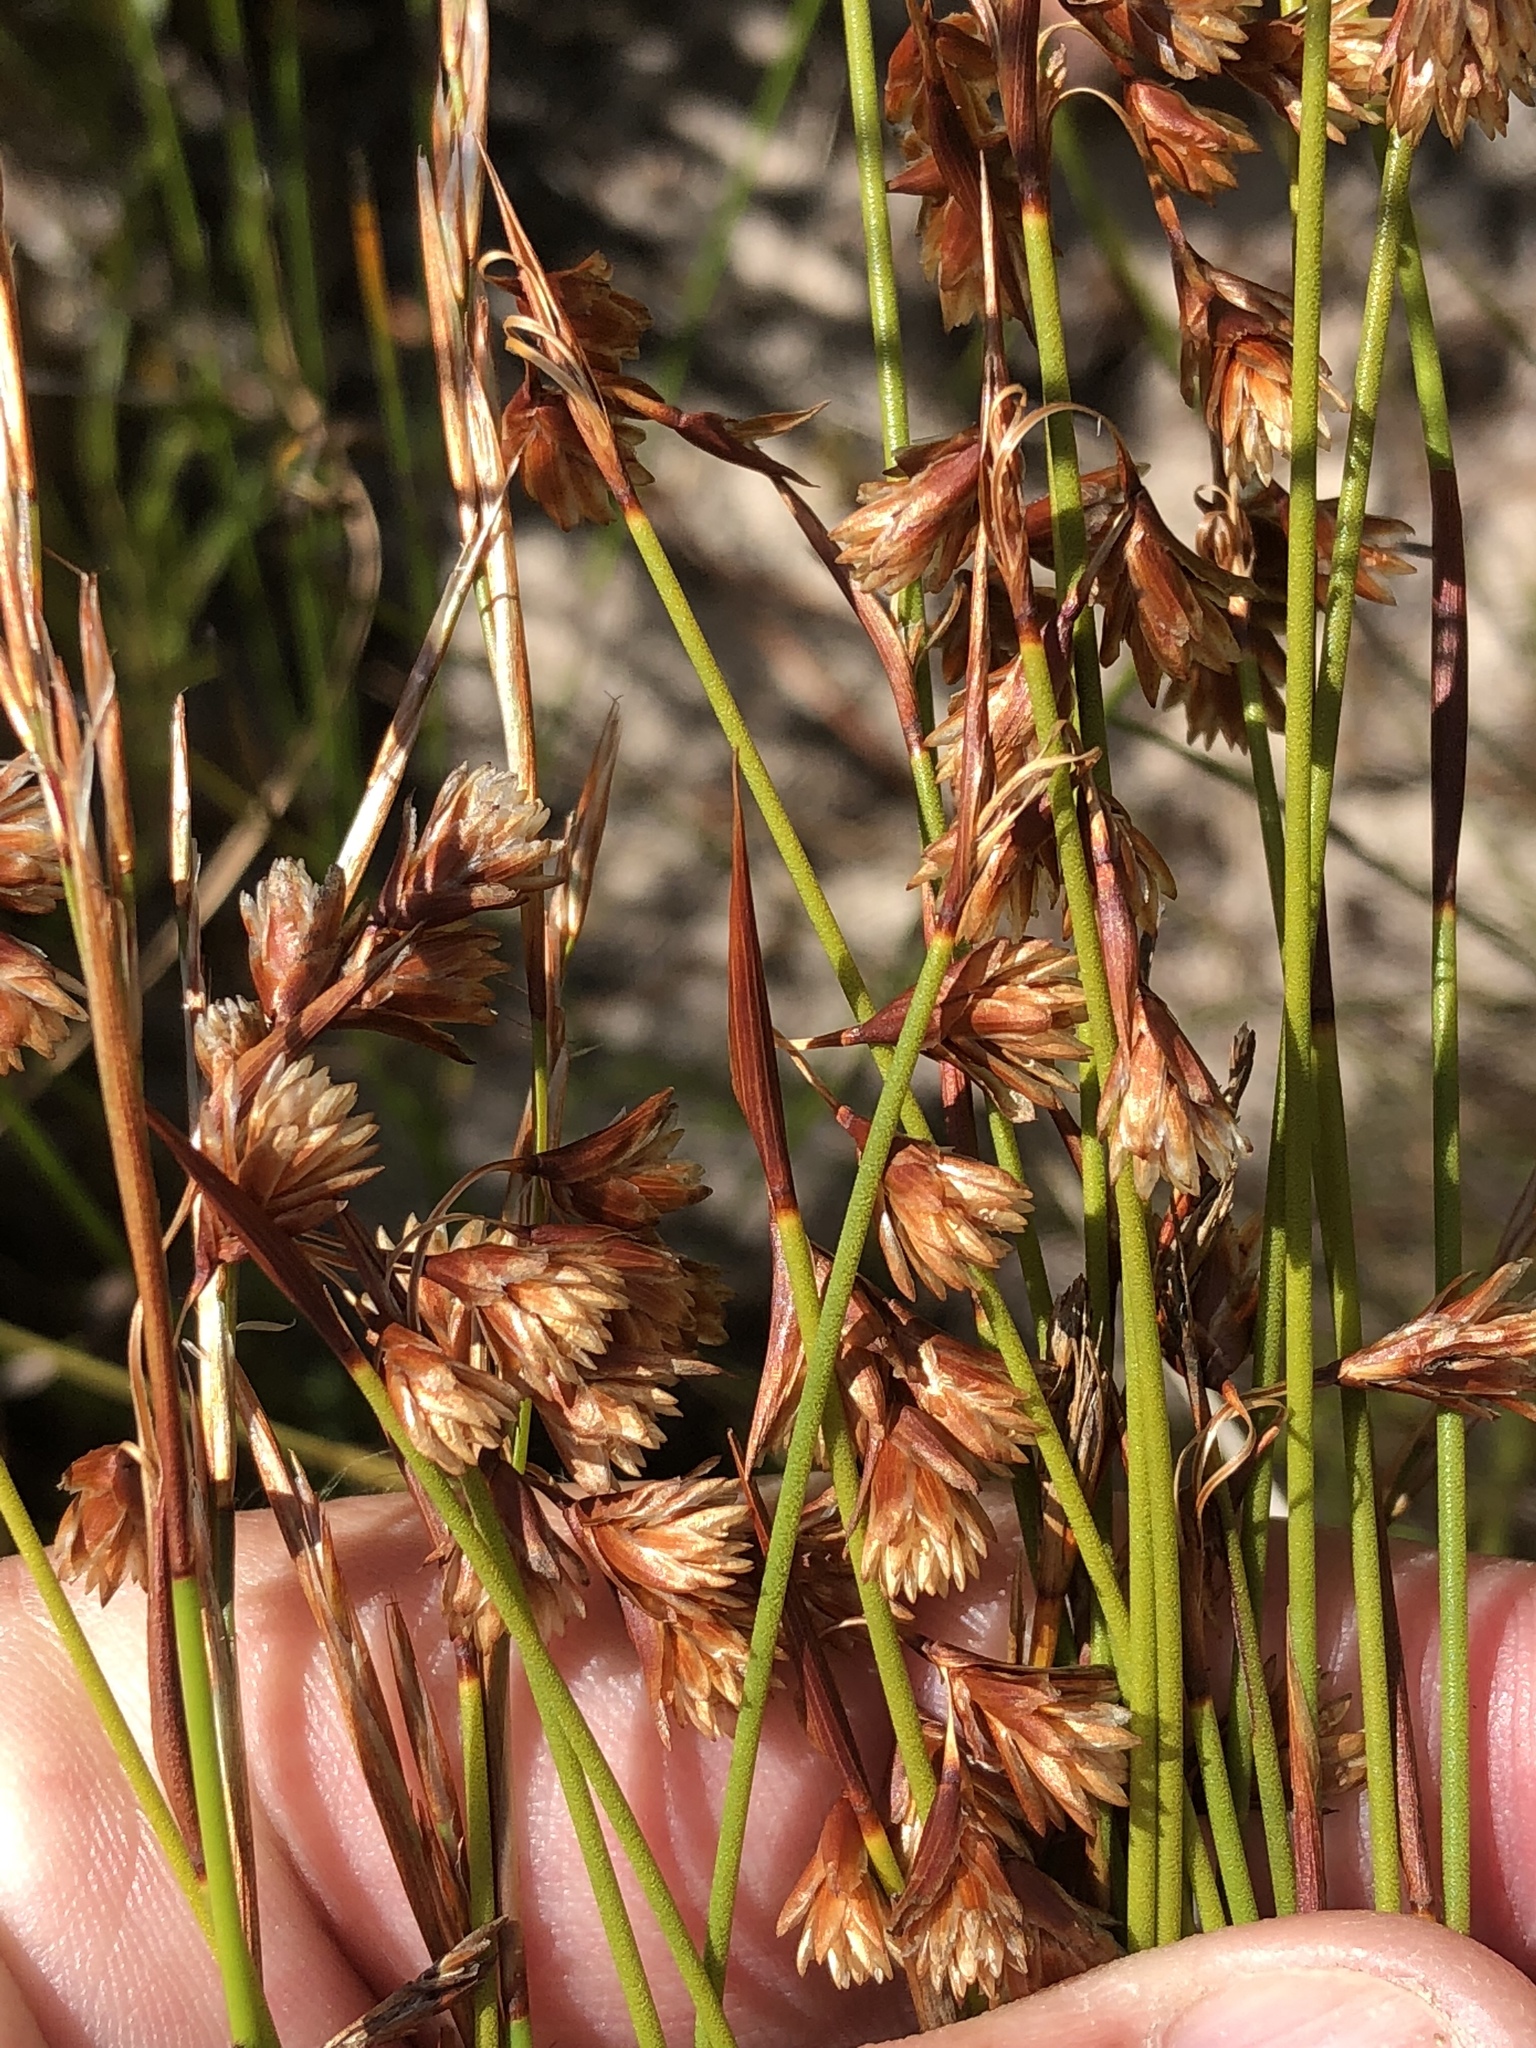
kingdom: Plantae
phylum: Tracheophyta
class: Liliopsida
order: Poales
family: Restionaceae
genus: Staberoha
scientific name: Staberoha distachyos
